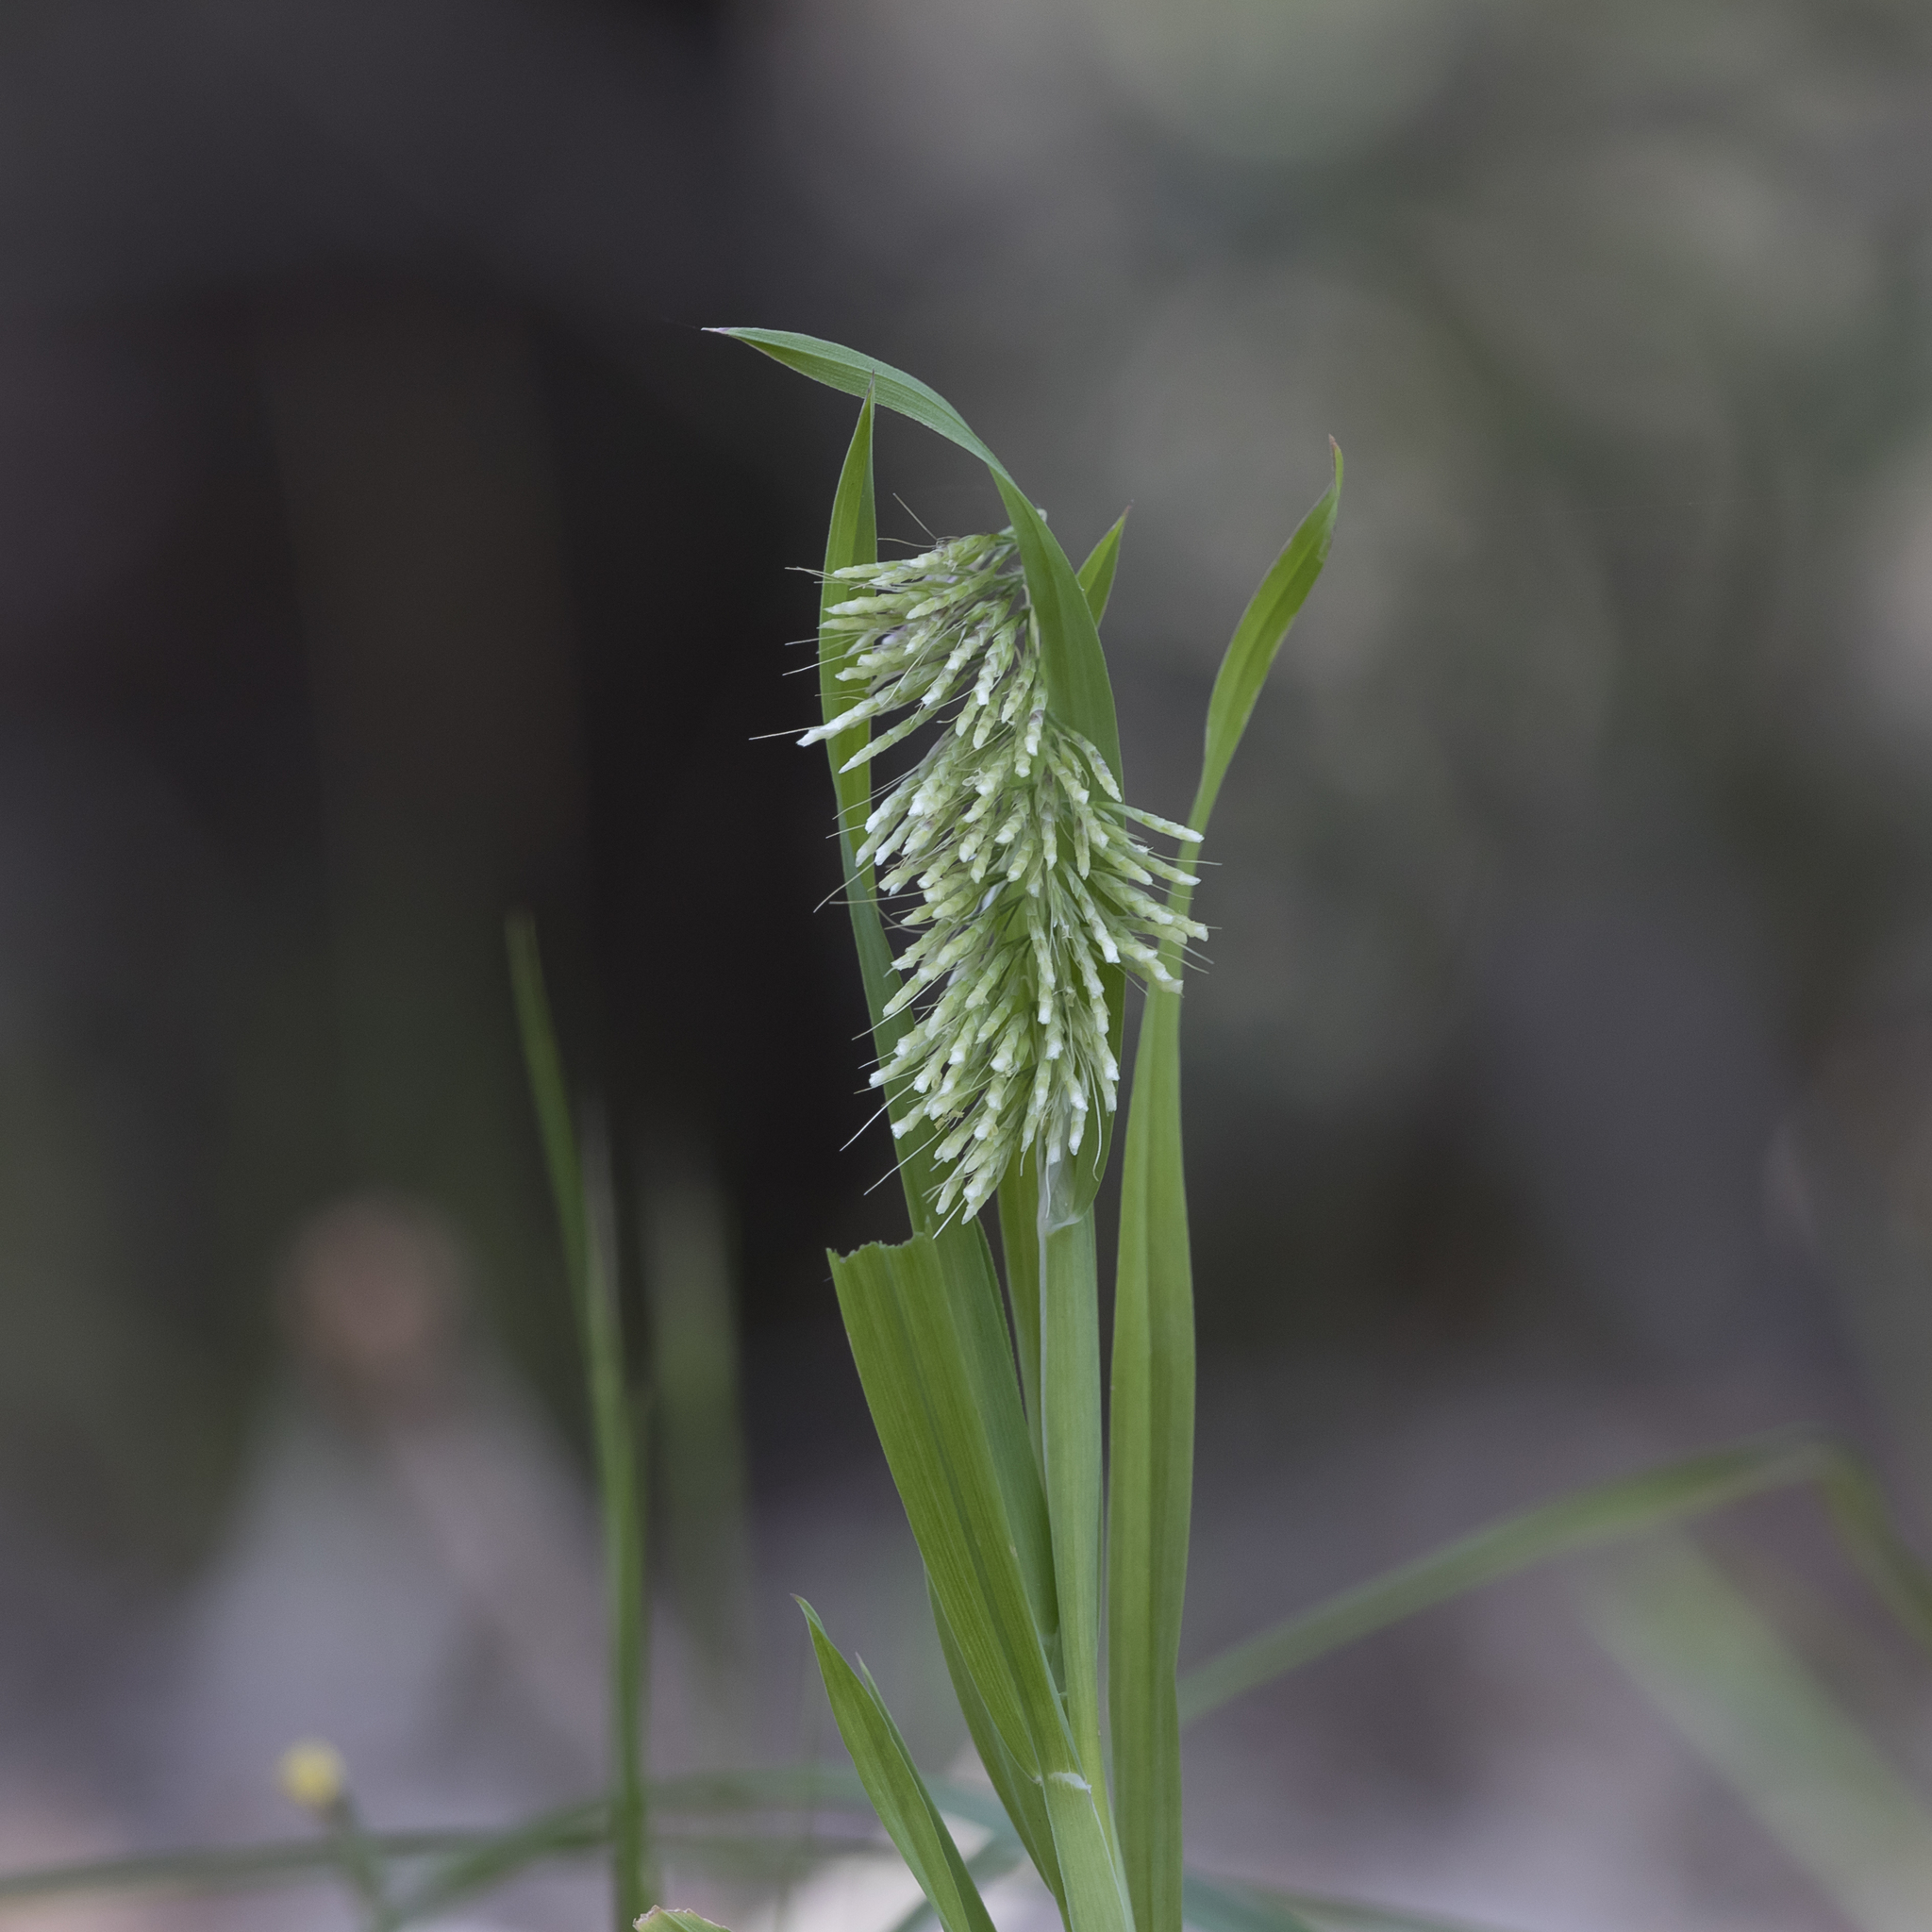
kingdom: Plantae
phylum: Tracheophyta
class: Liliopsida
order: Poales
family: Poaceae
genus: Lamarckia
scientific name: Lamarckia aurea
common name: Golden dog's-tail
